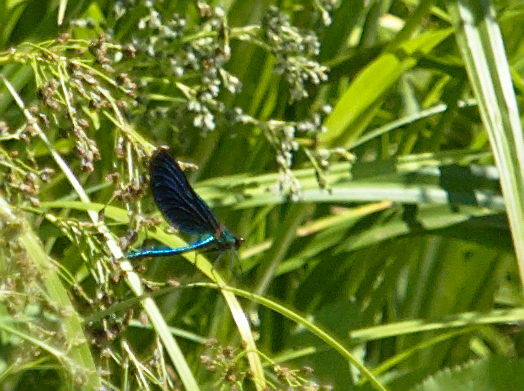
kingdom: Animalia
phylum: Arthropoda
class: Insecta
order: Odonata
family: Calopterygidae
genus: Calopteryx
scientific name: Calopteryx virgo
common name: Beautiful demoiselle
